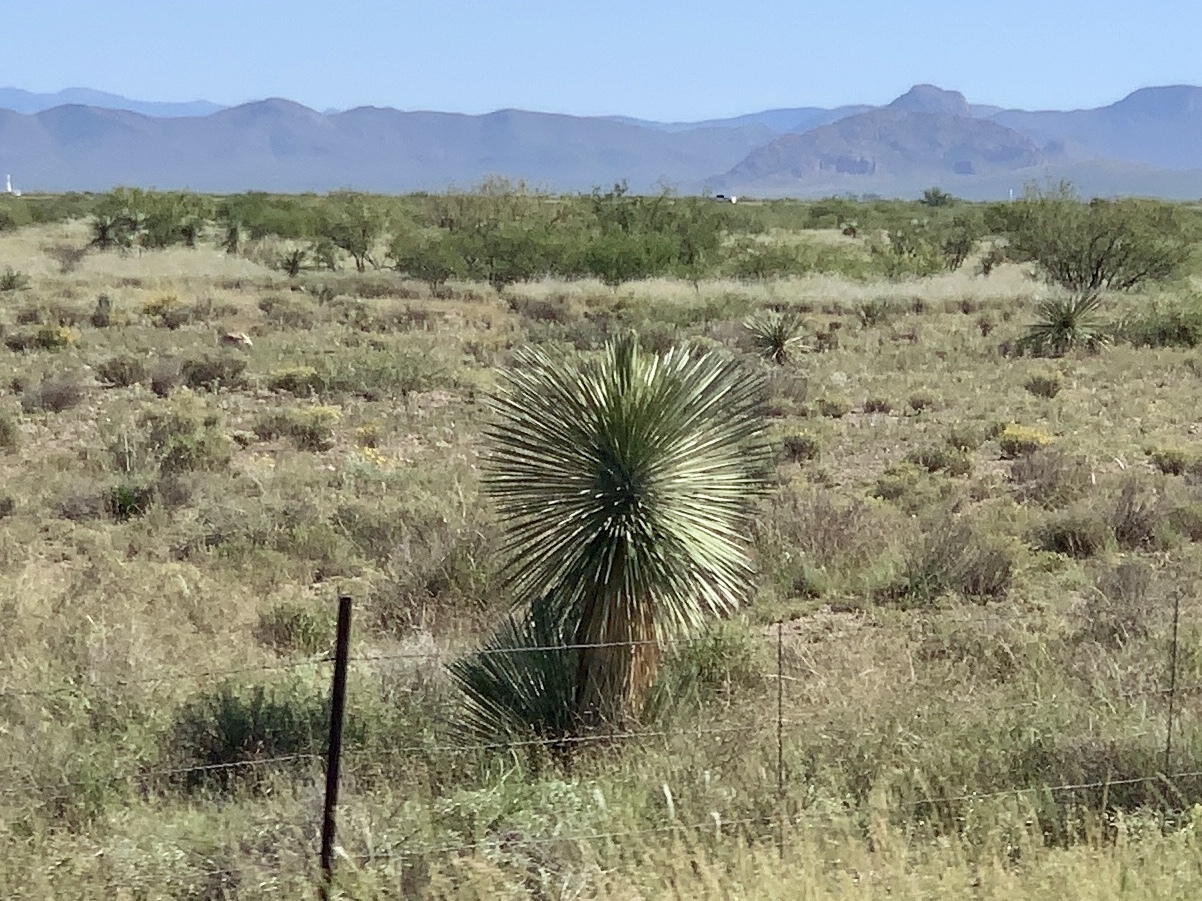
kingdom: Plantae
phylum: Tracheophyta
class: Liliopsida
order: Asparagales
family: Asparagaceae
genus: Yucca
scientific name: Yucca elata
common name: Palmella
